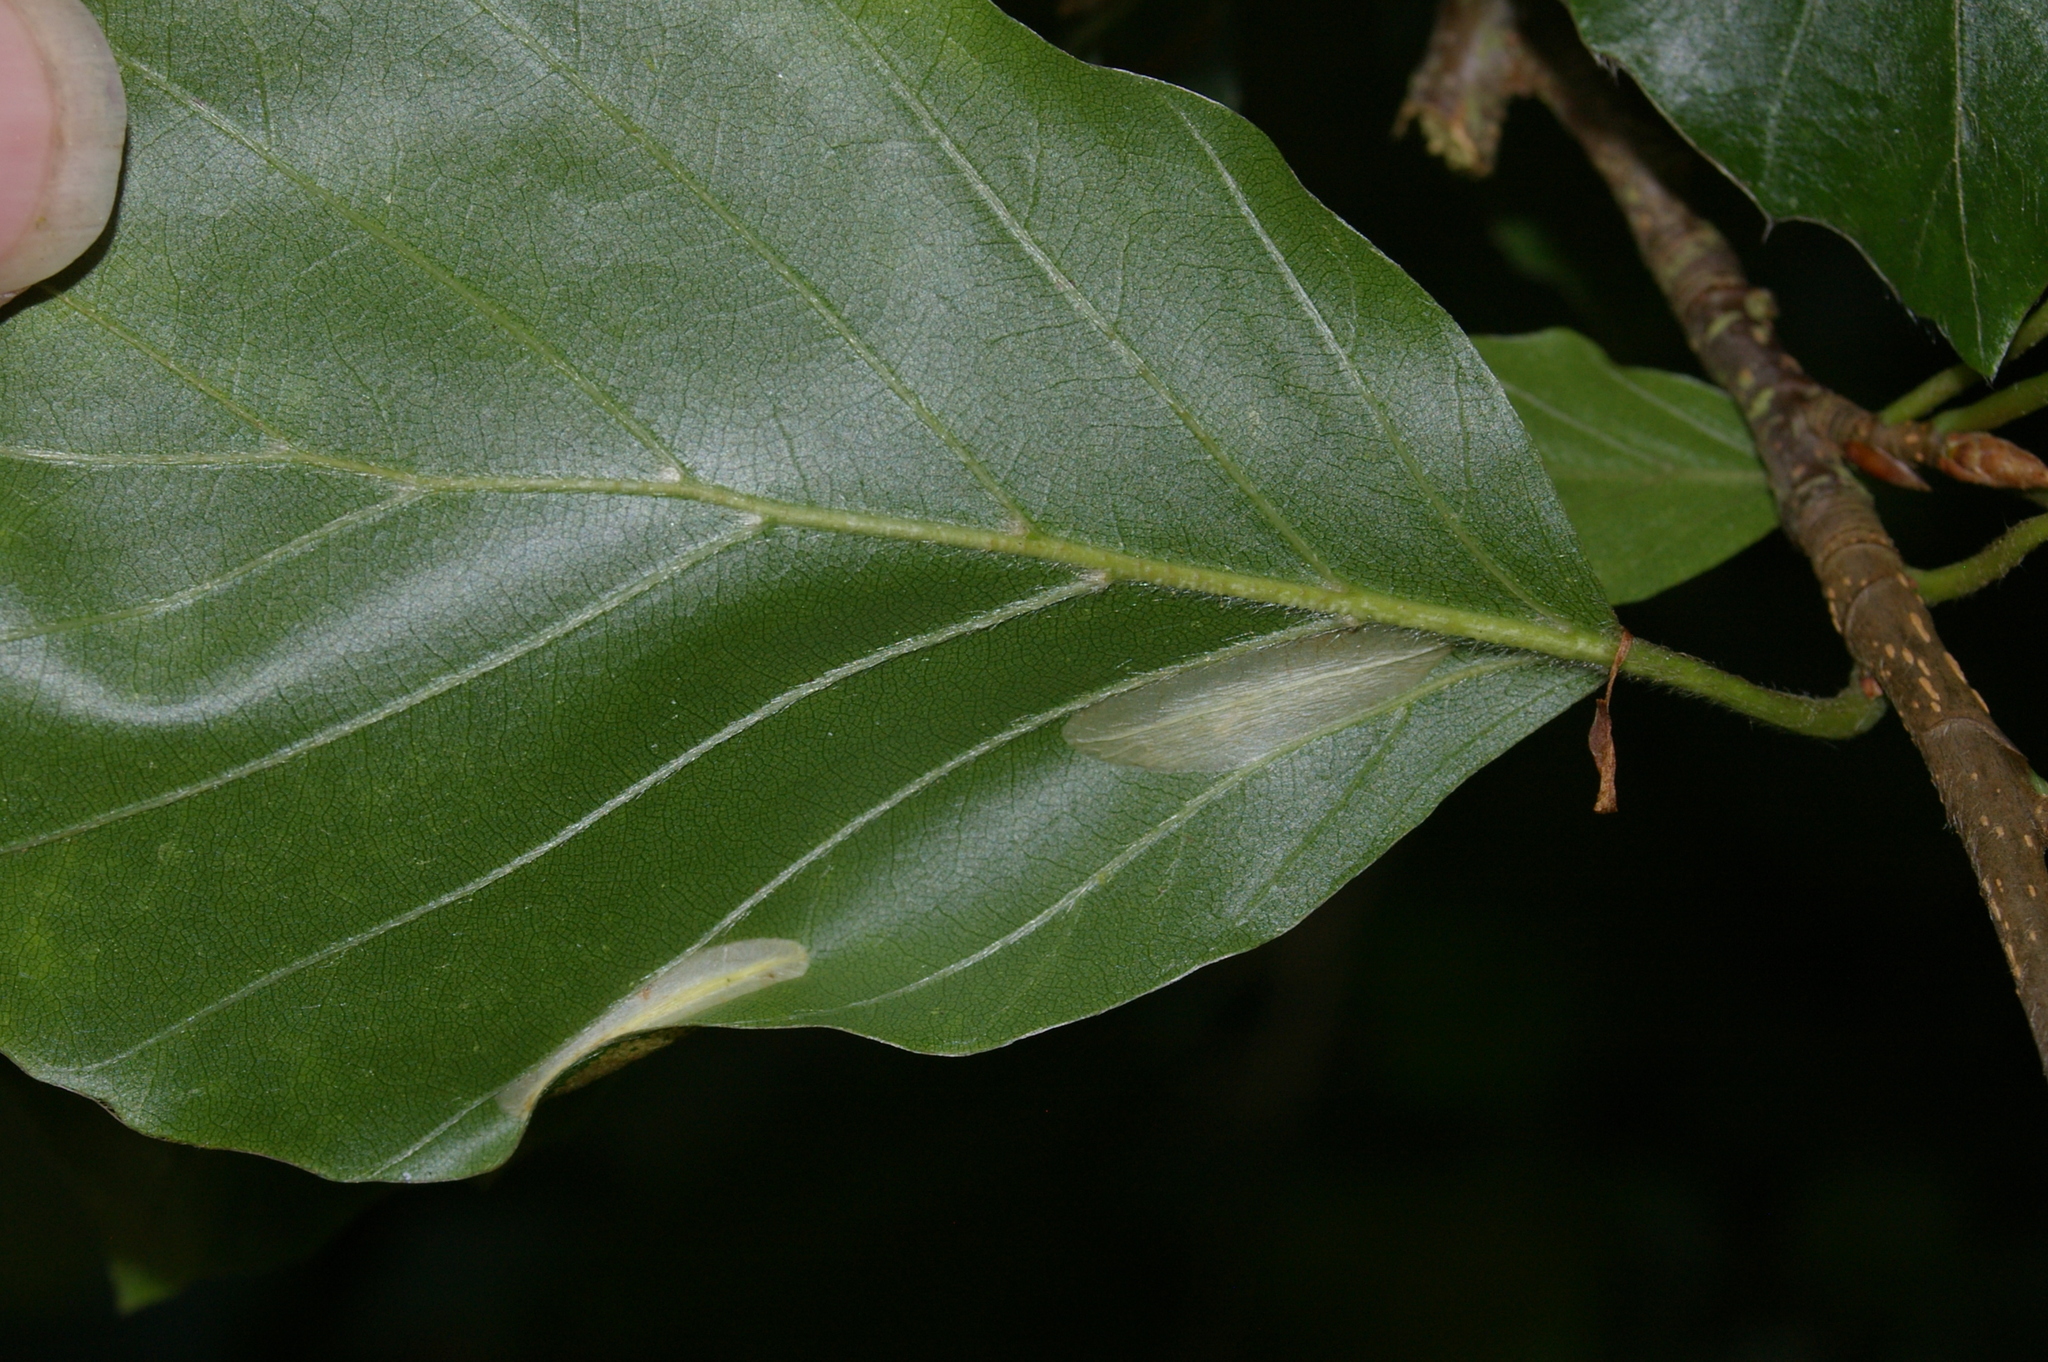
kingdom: Animalia
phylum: Arthropoda
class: Insecta
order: Lepidoptera
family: Gracillariidae
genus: Phyllonorycter
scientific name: Phyllonorycter maestingella
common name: Beech midget
